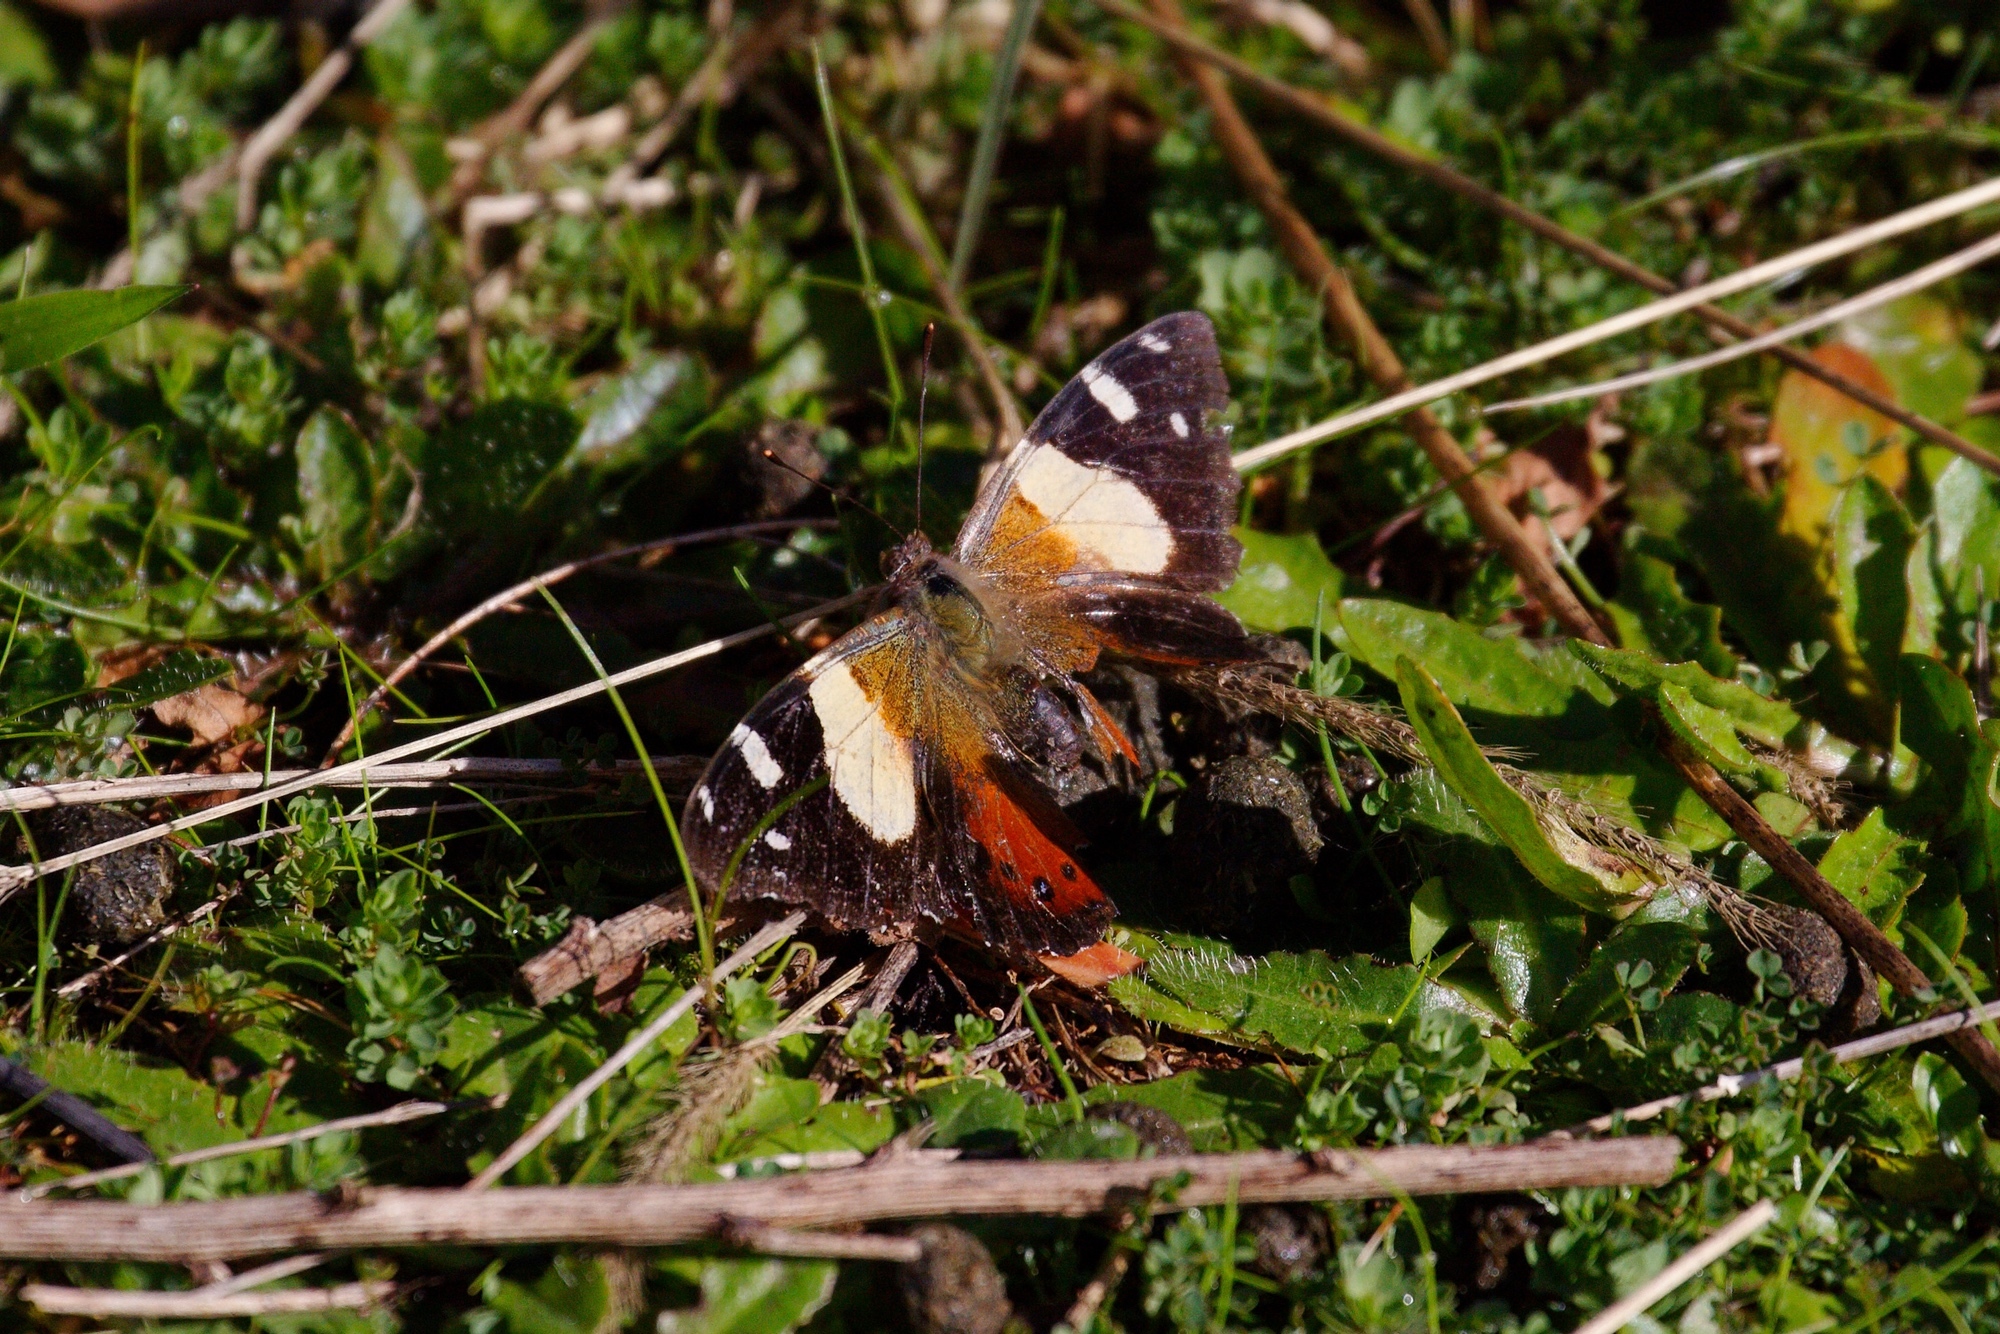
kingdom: Animalia
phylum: Arthropoda
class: Insecta
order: Lepidoptera
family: Nymphalidae
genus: Vanessa
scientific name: Vanessa itea
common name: Yellow admiral
